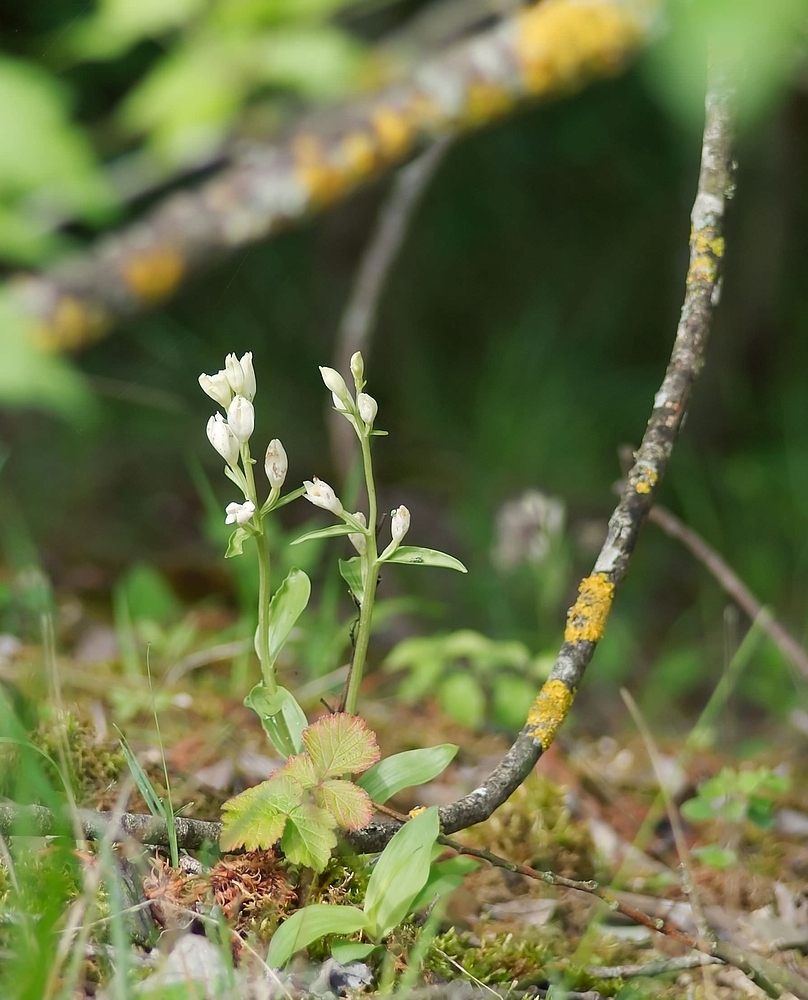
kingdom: Plantae
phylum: Tracheophyta
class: Liliopsida
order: Asparagales
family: Orchidaceae
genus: Cephalanthera
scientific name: Cephalanthera damasonium
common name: White helleborine
